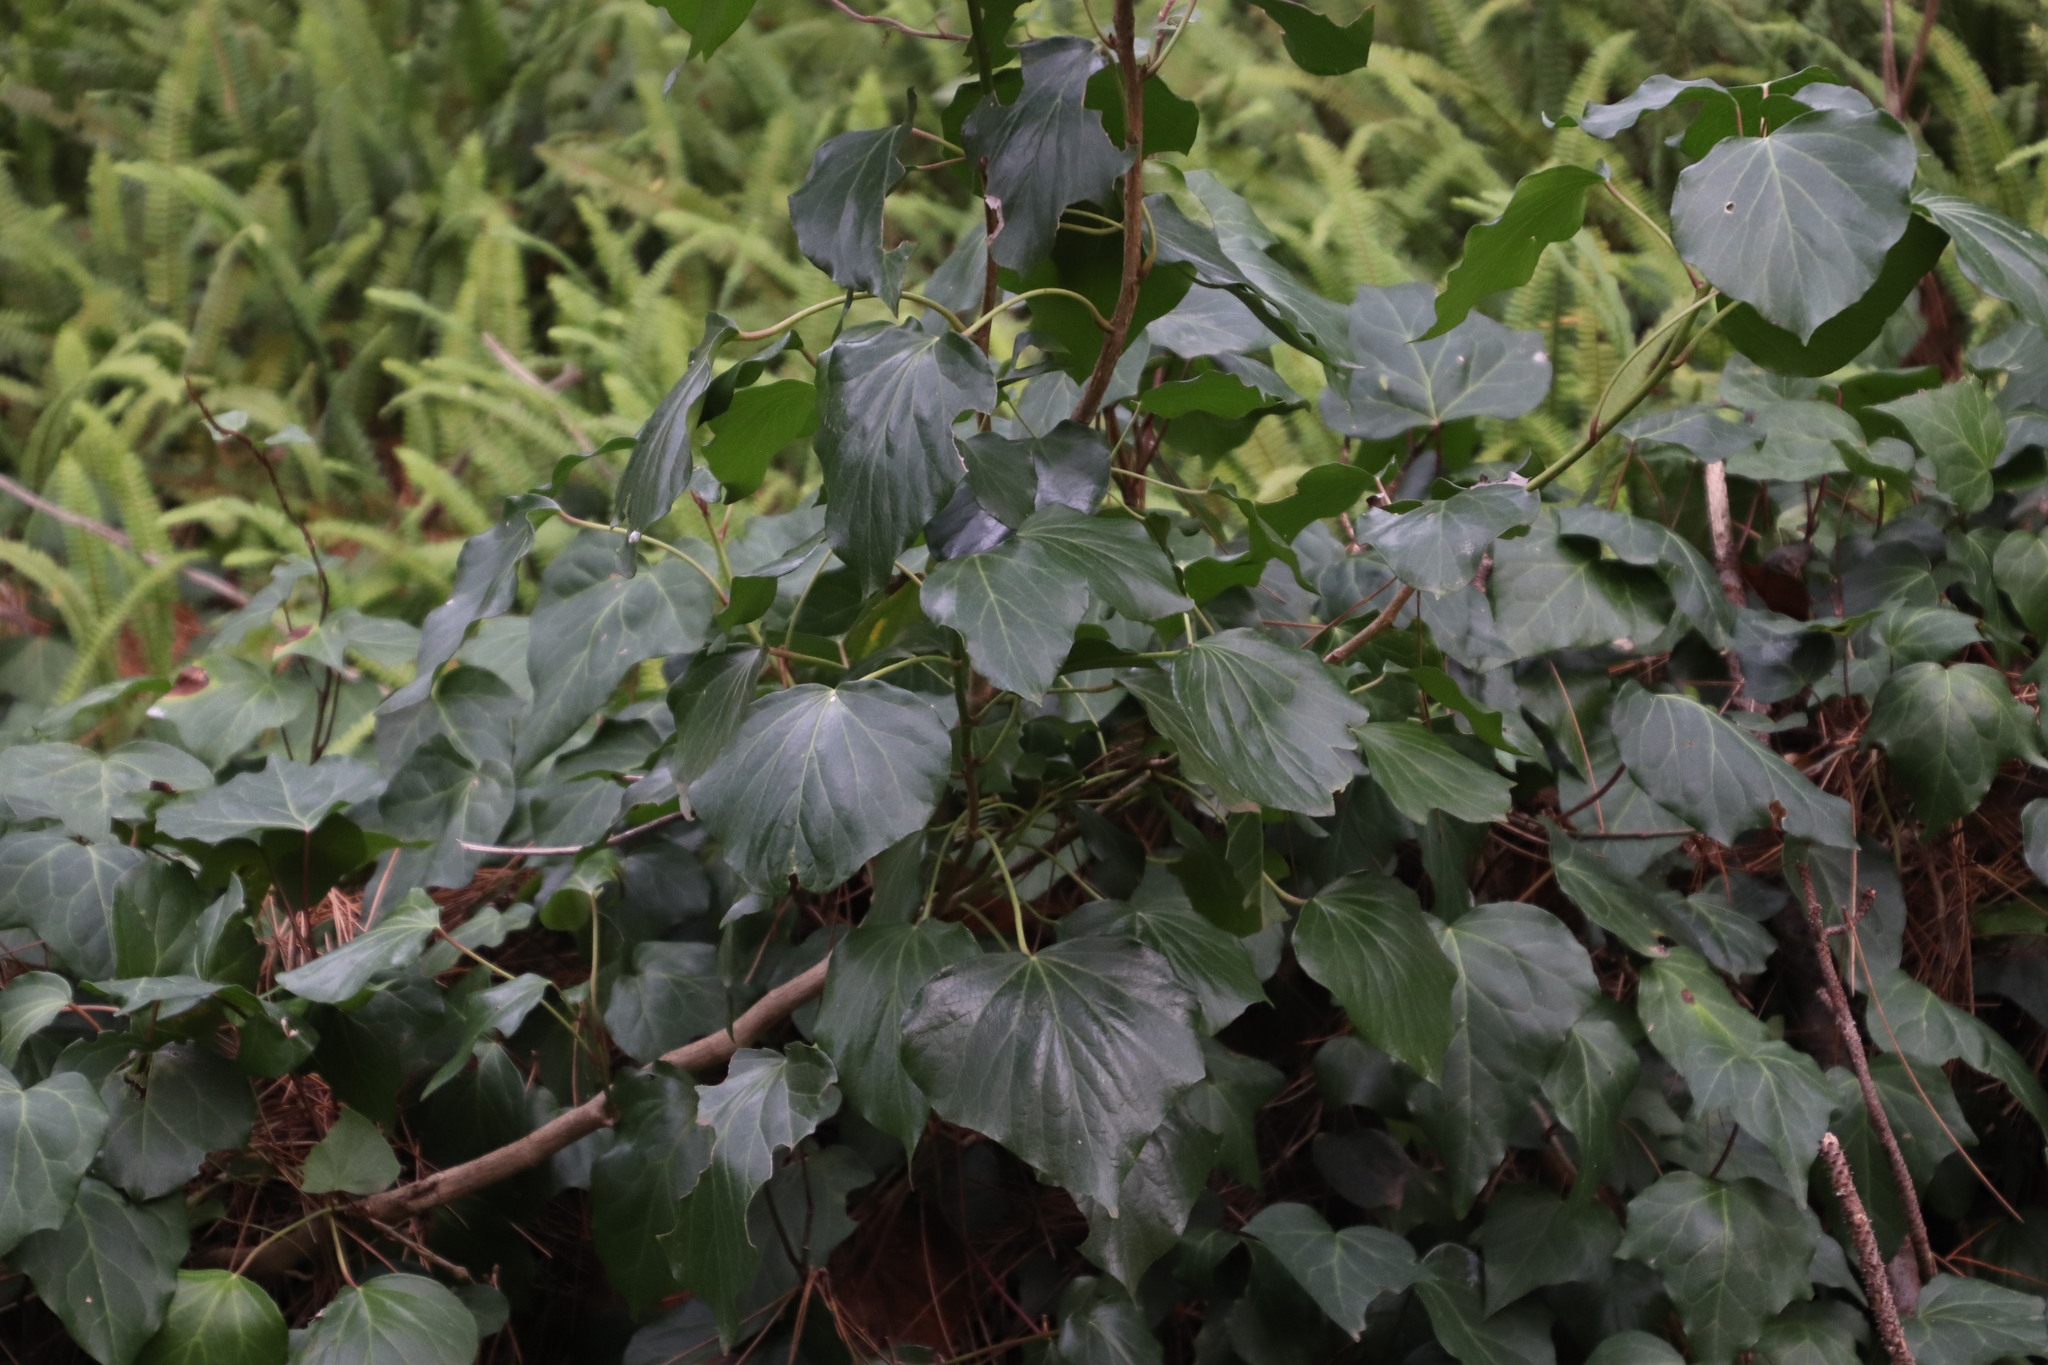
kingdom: Plantae
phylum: Tracheophyta
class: Magnoliopsida
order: Apiales
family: Araliaceae
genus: Hedera
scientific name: Hedera canariensis
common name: Madeira ivy
